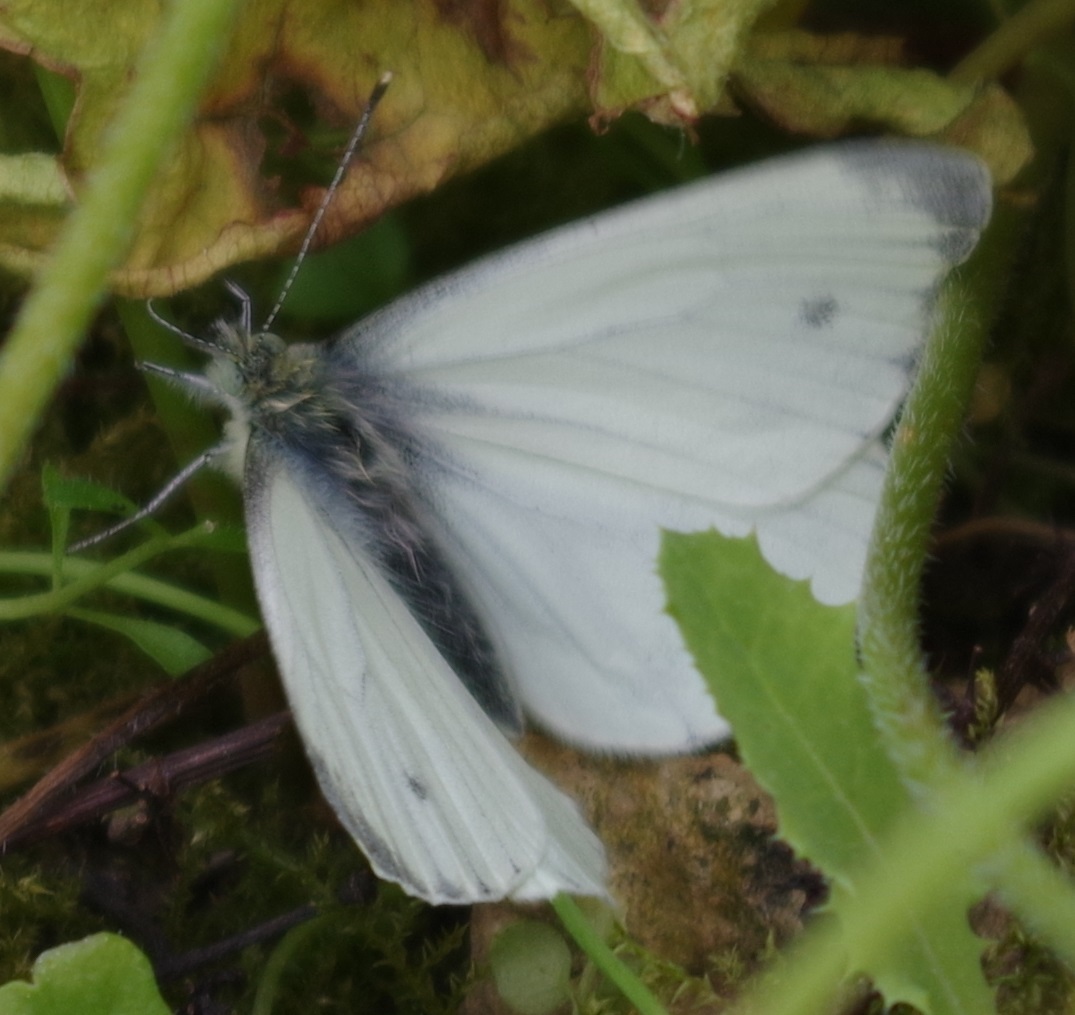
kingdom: Animalia
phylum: Arthropoda
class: Insecta
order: Lepidoptera
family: Pieridae
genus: Pieris
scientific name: Pieris napi
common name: Green-veined white
